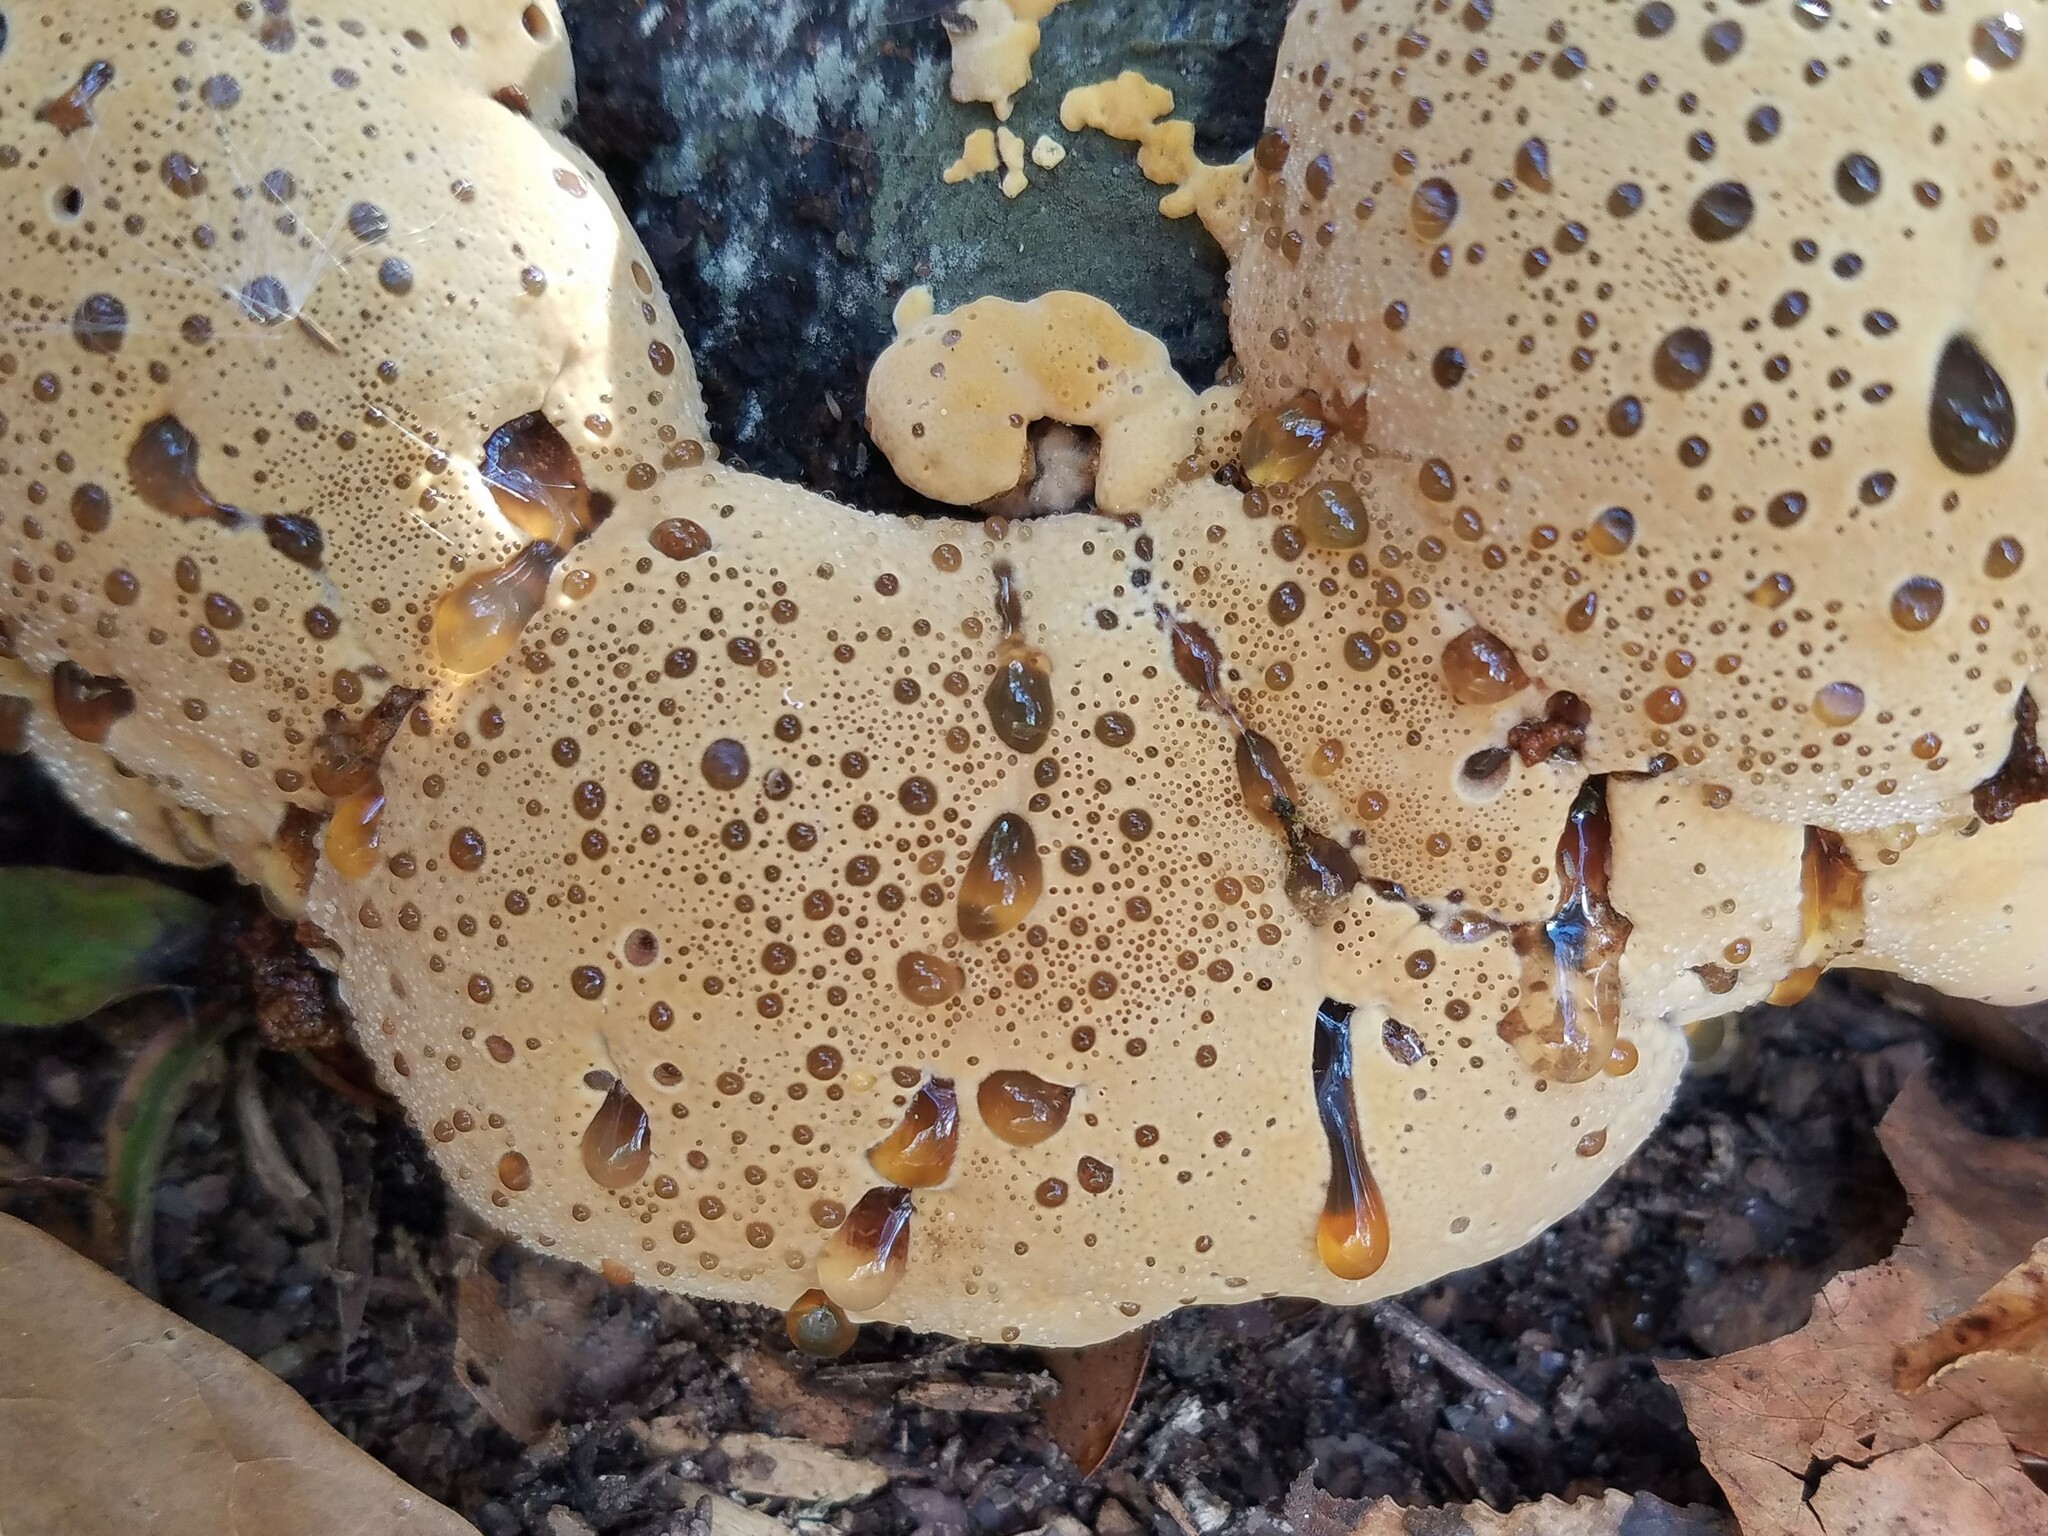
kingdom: Fungi
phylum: Basidiomycota
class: Agaricomycetes
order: Hymenochaetales
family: Hymenochaetaceae
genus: Pseudoinonotus
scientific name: Pseudoinonotus dryadeus
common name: Oak bracket
